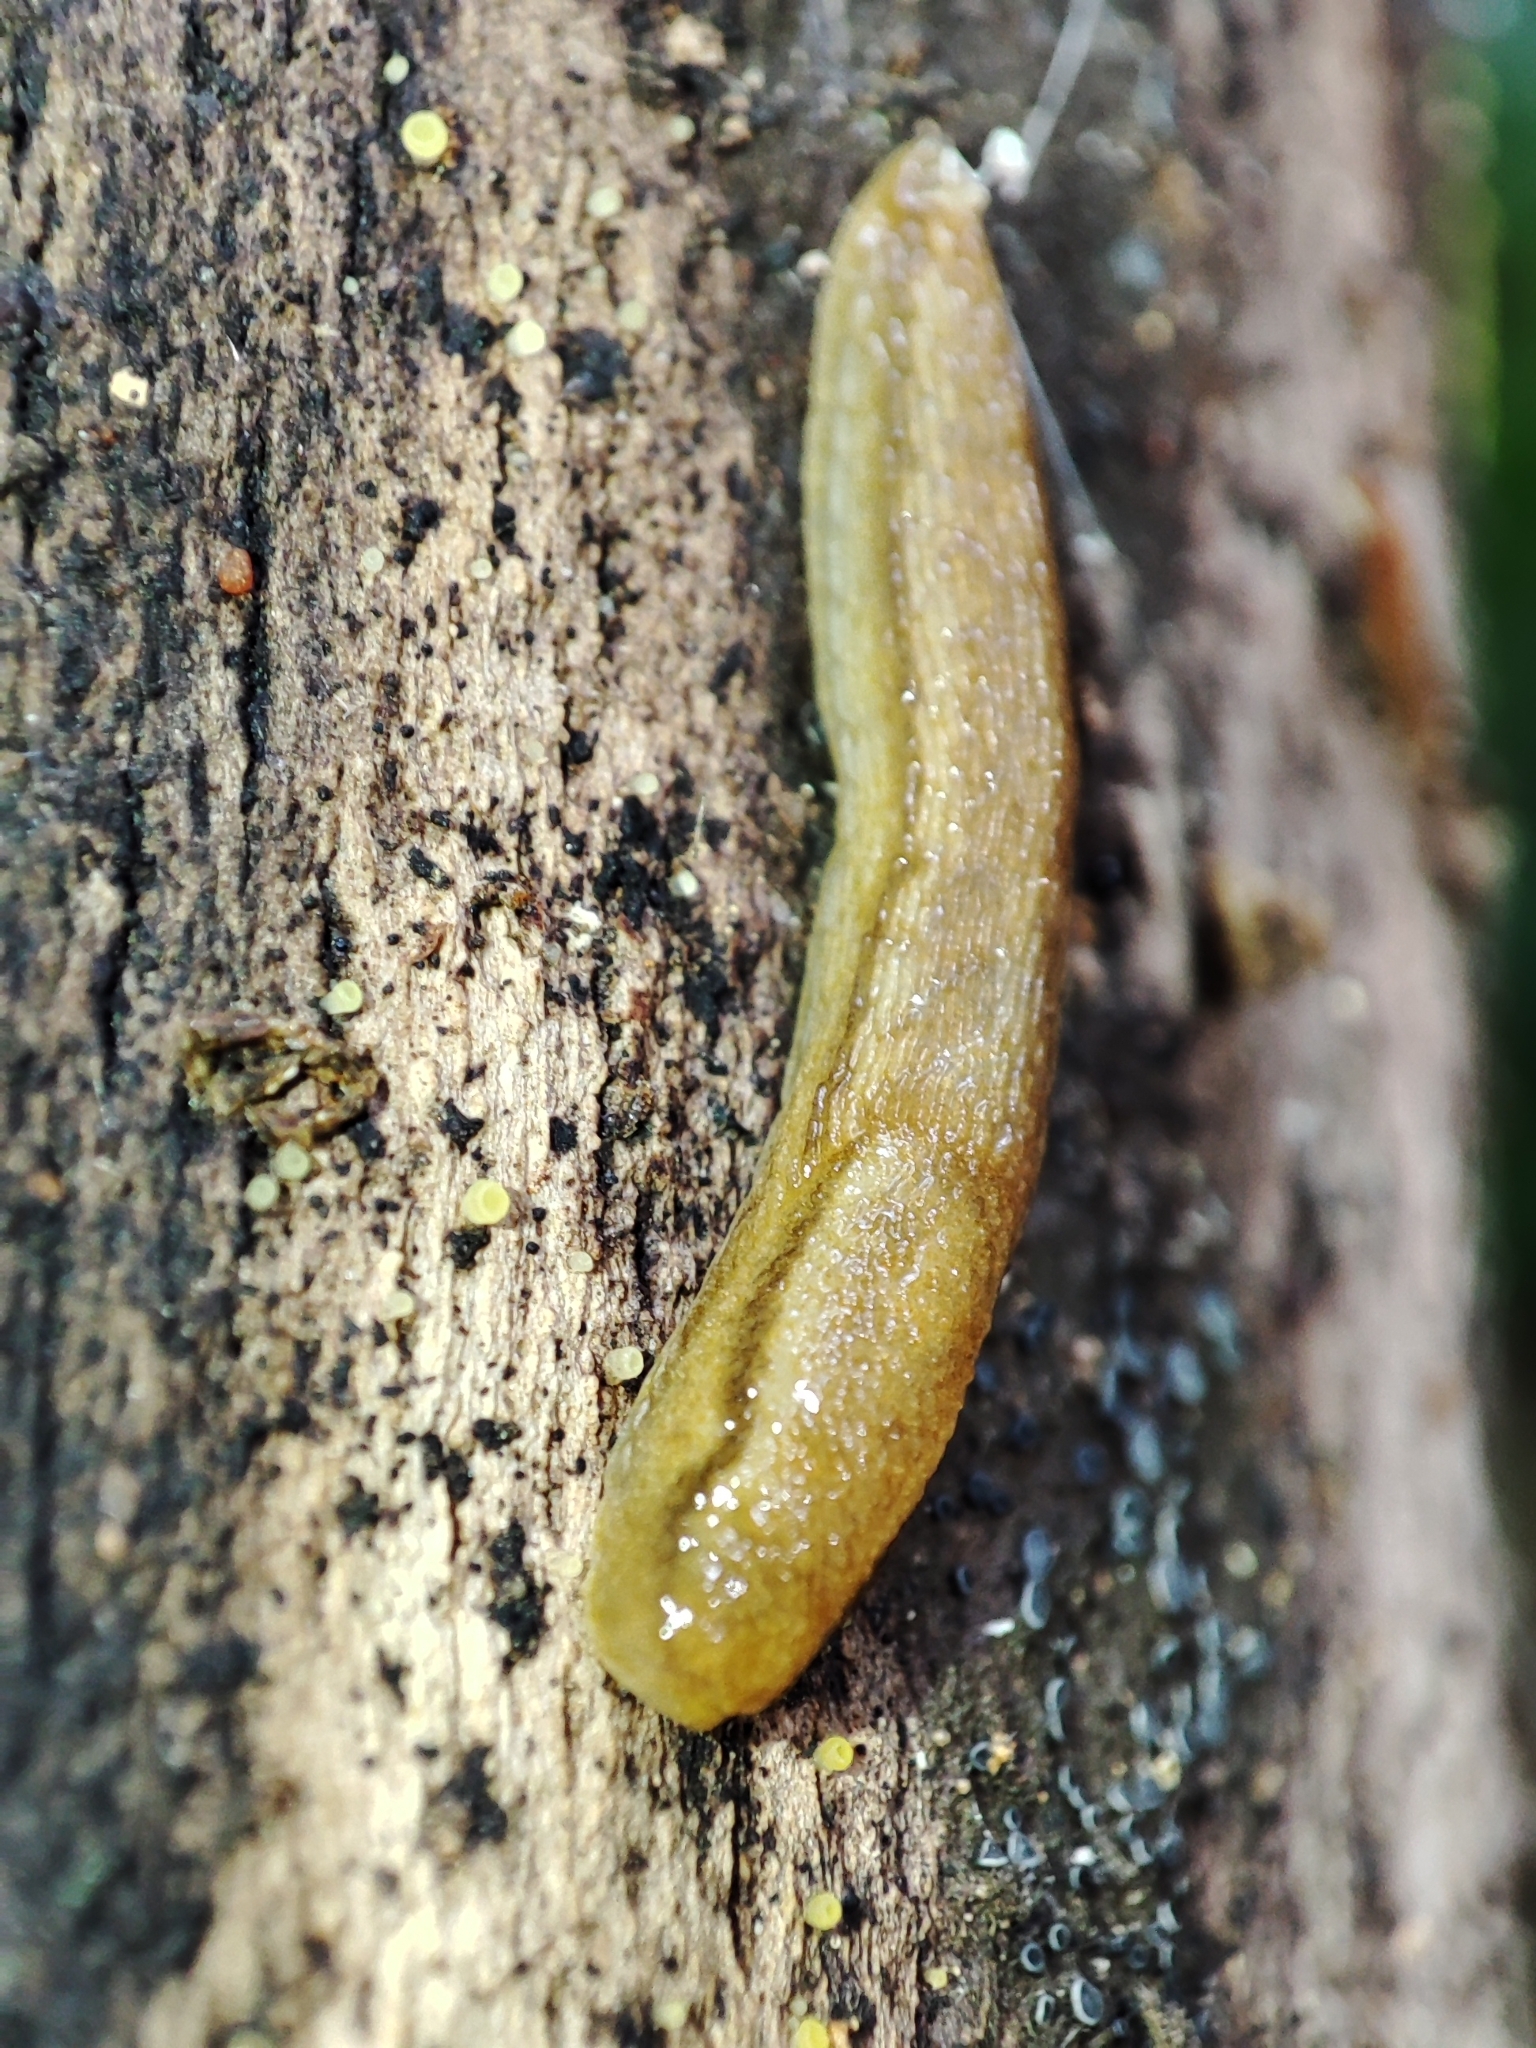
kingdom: Animalia
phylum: Mollusca
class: Gastropoda
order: Stylommatophora
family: Arionidae
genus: Arion
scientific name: Arion fuscus
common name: Northern dusky slug
